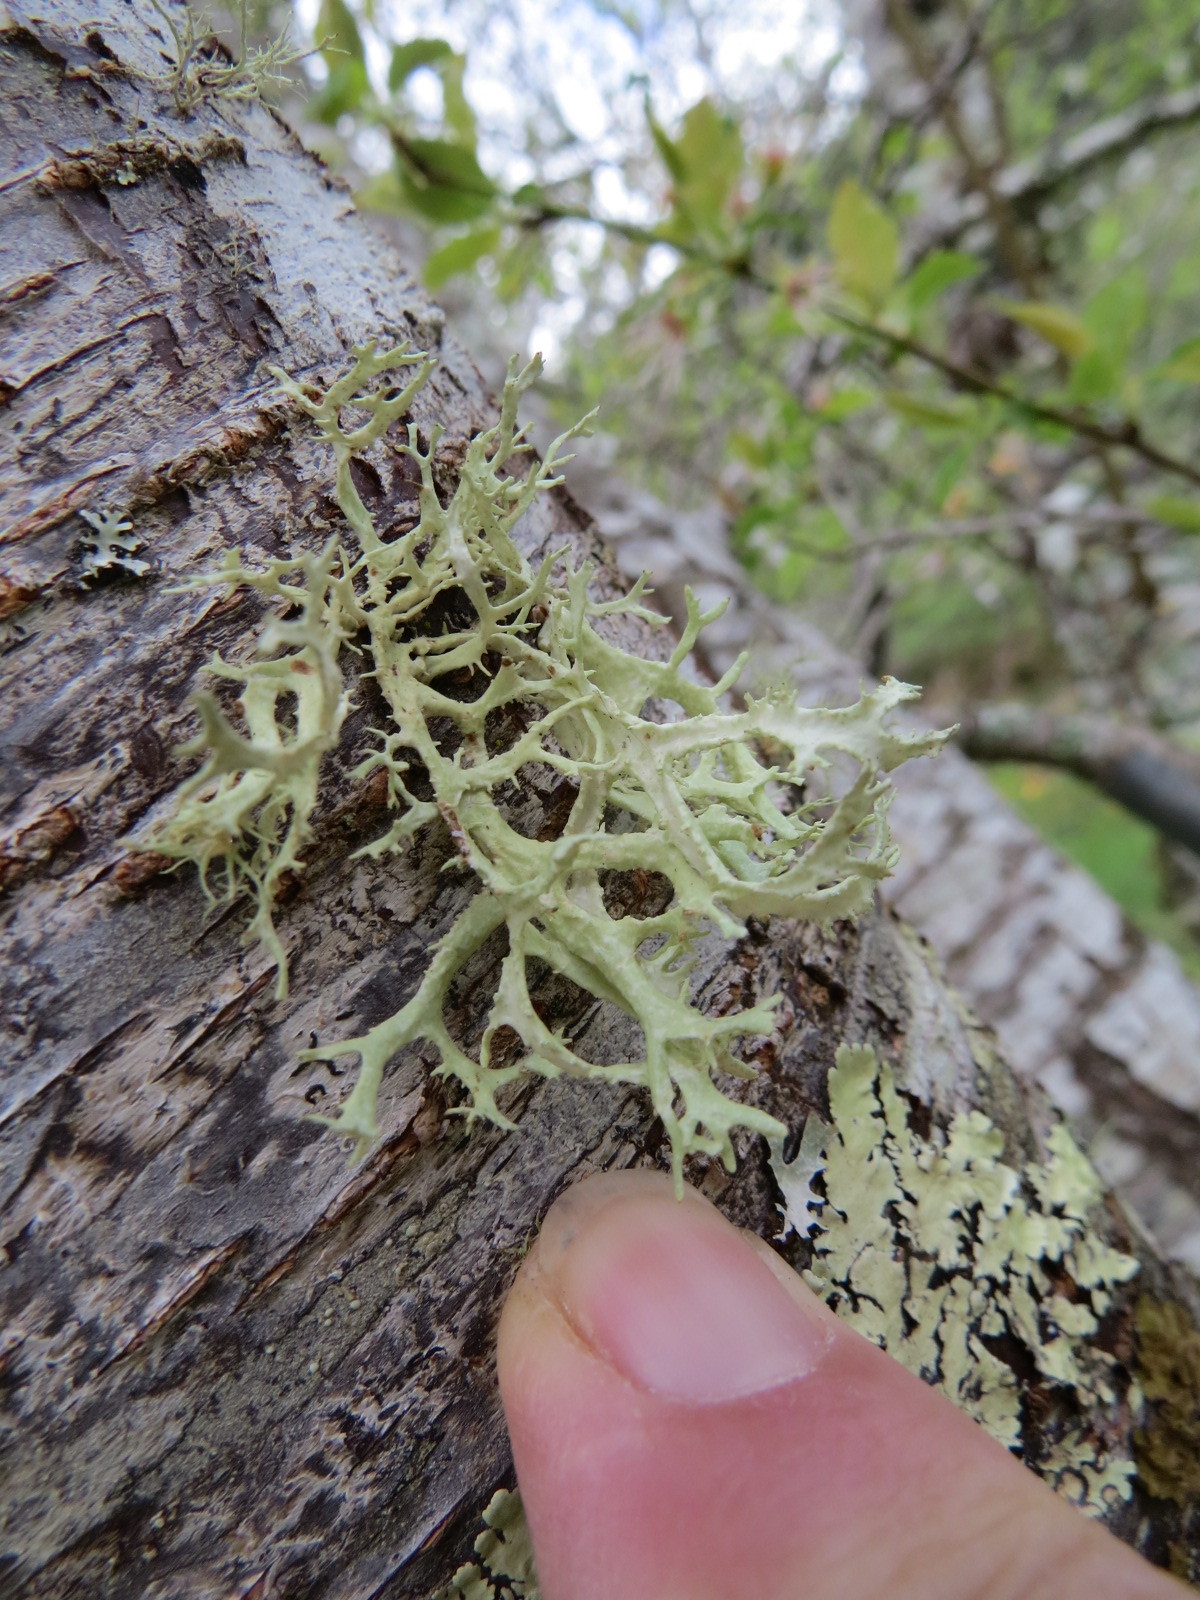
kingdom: Fungi
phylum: Ascomycota
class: Lecanoromycetes
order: Lecanorales
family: Parmeliaceae
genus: Evernia
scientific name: Evernia prunastri
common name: Oak moss
